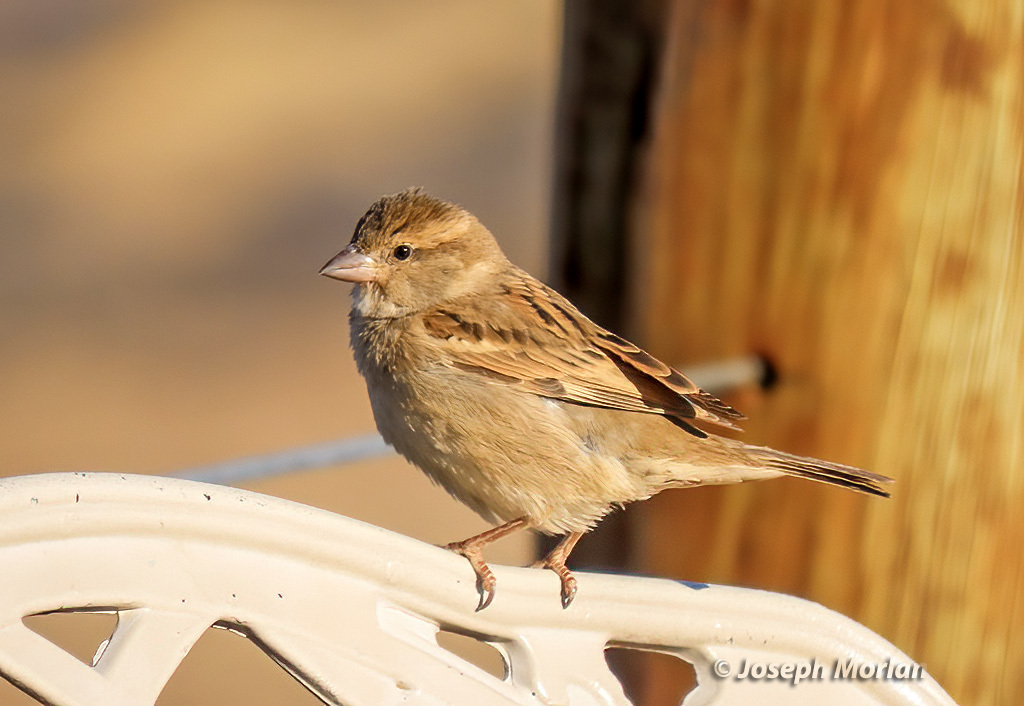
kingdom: Animalia
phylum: Chordata
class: Aves
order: Passeriformes
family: Passeridae
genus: Passer
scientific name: Passer domesticus
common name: House sparrow
